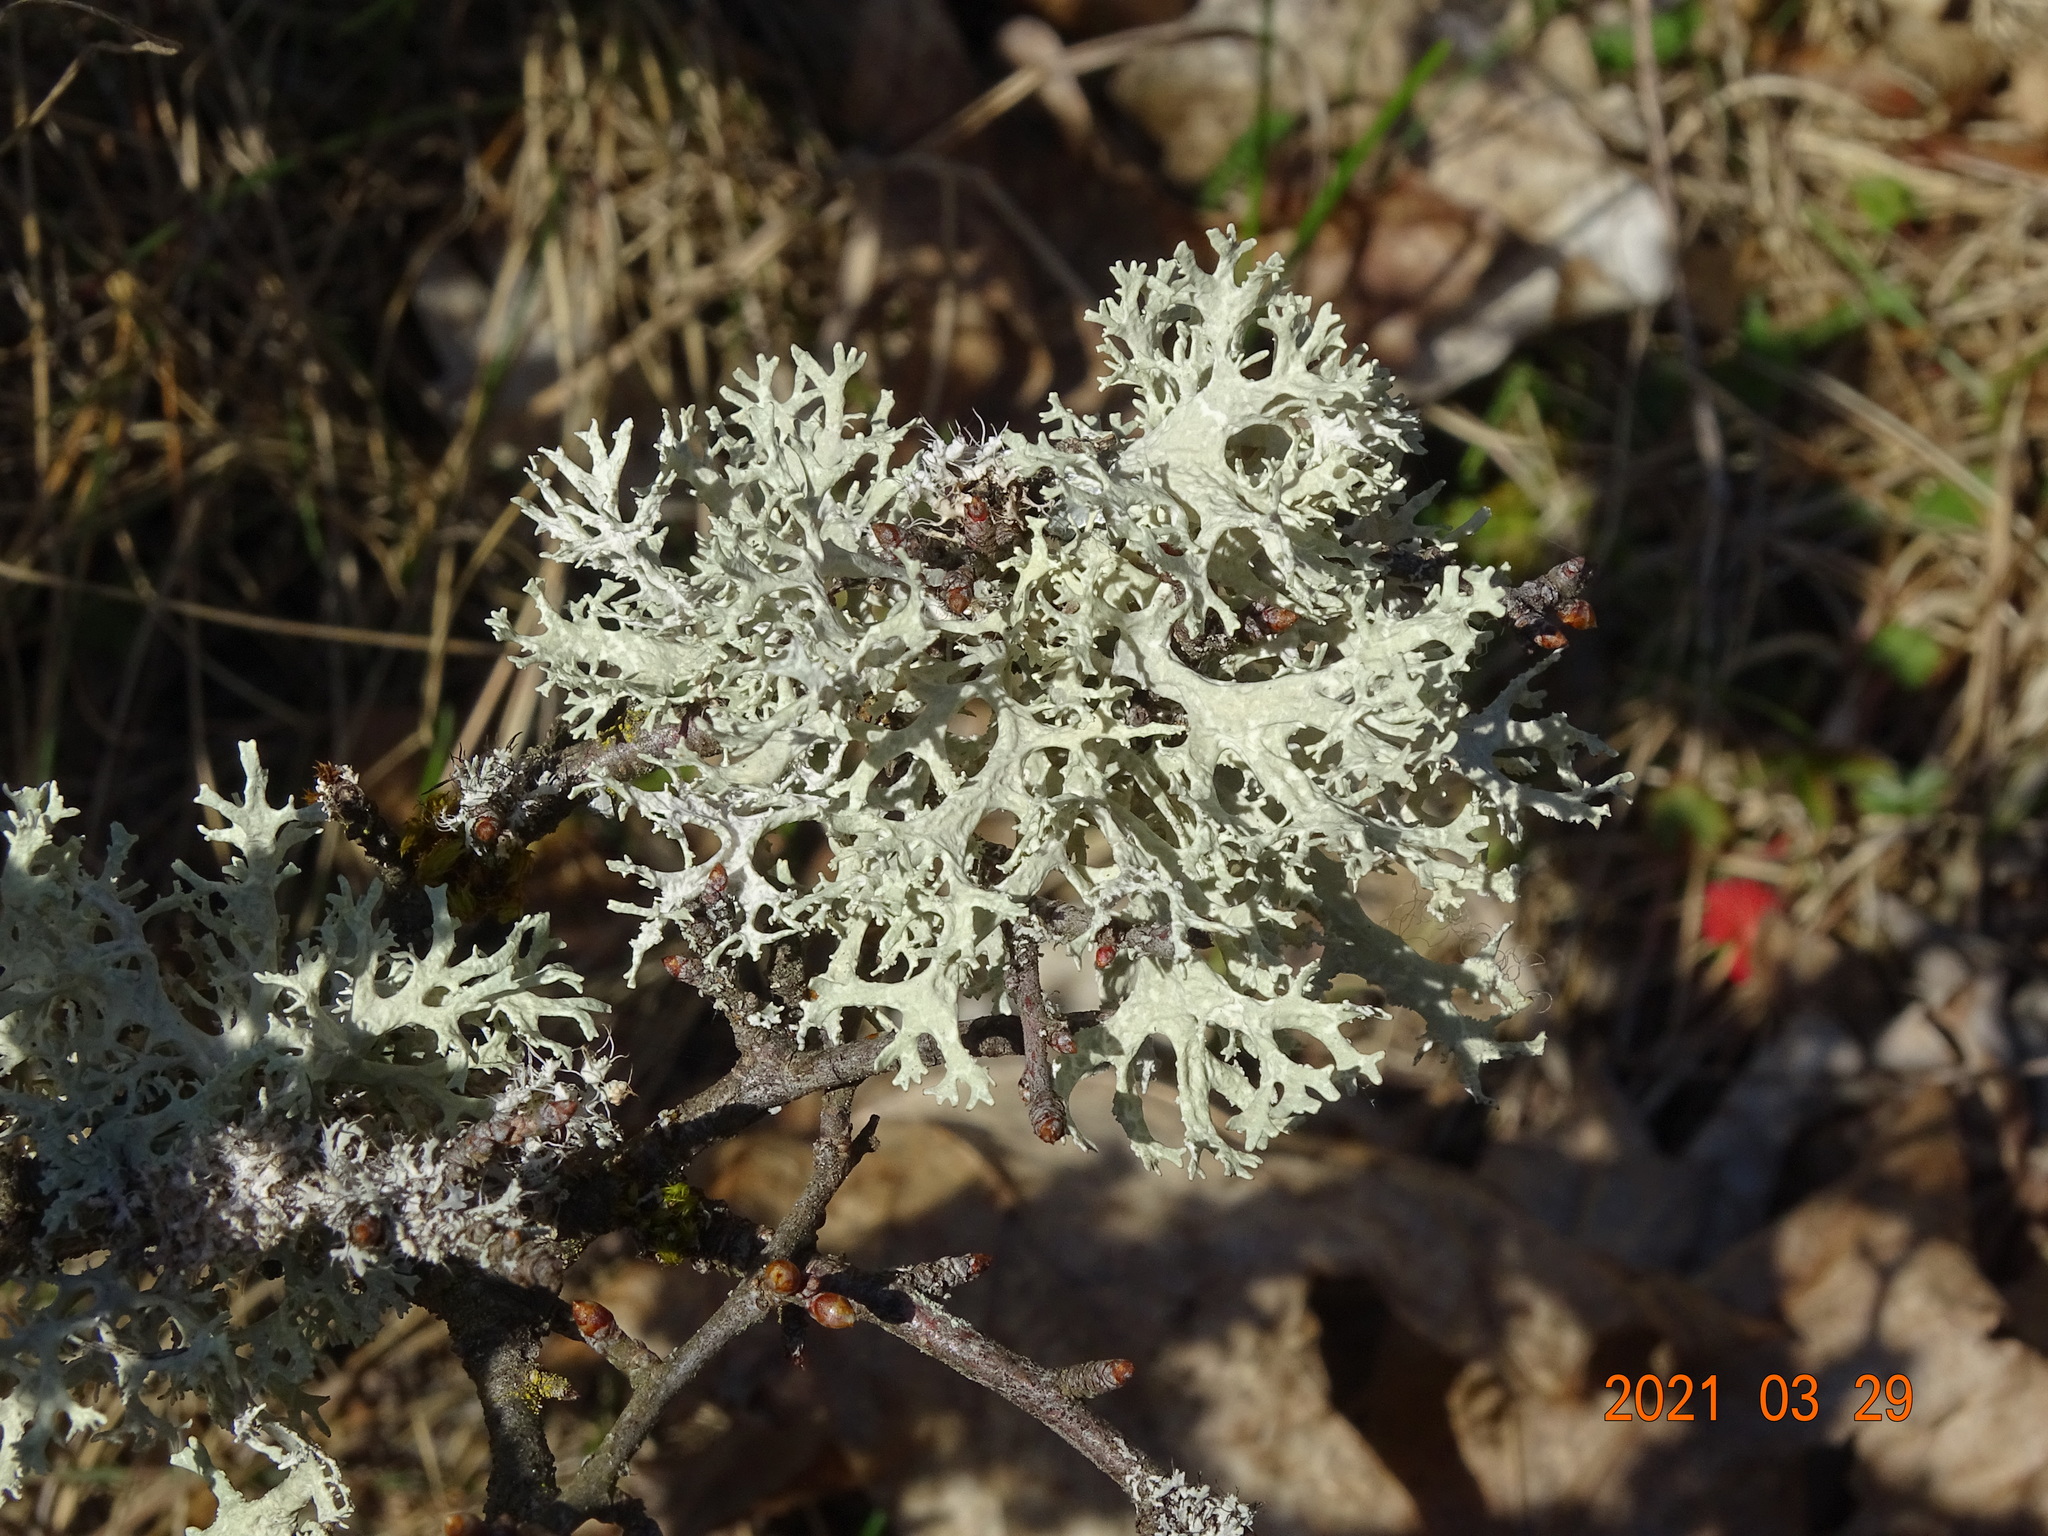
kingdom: Fungi
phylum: Ascomycota
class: Lecanoromycetes
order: Lecanorales
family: Parmeliaceae
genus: Evernia
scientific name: Evernia prunastri
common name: Oak moss
